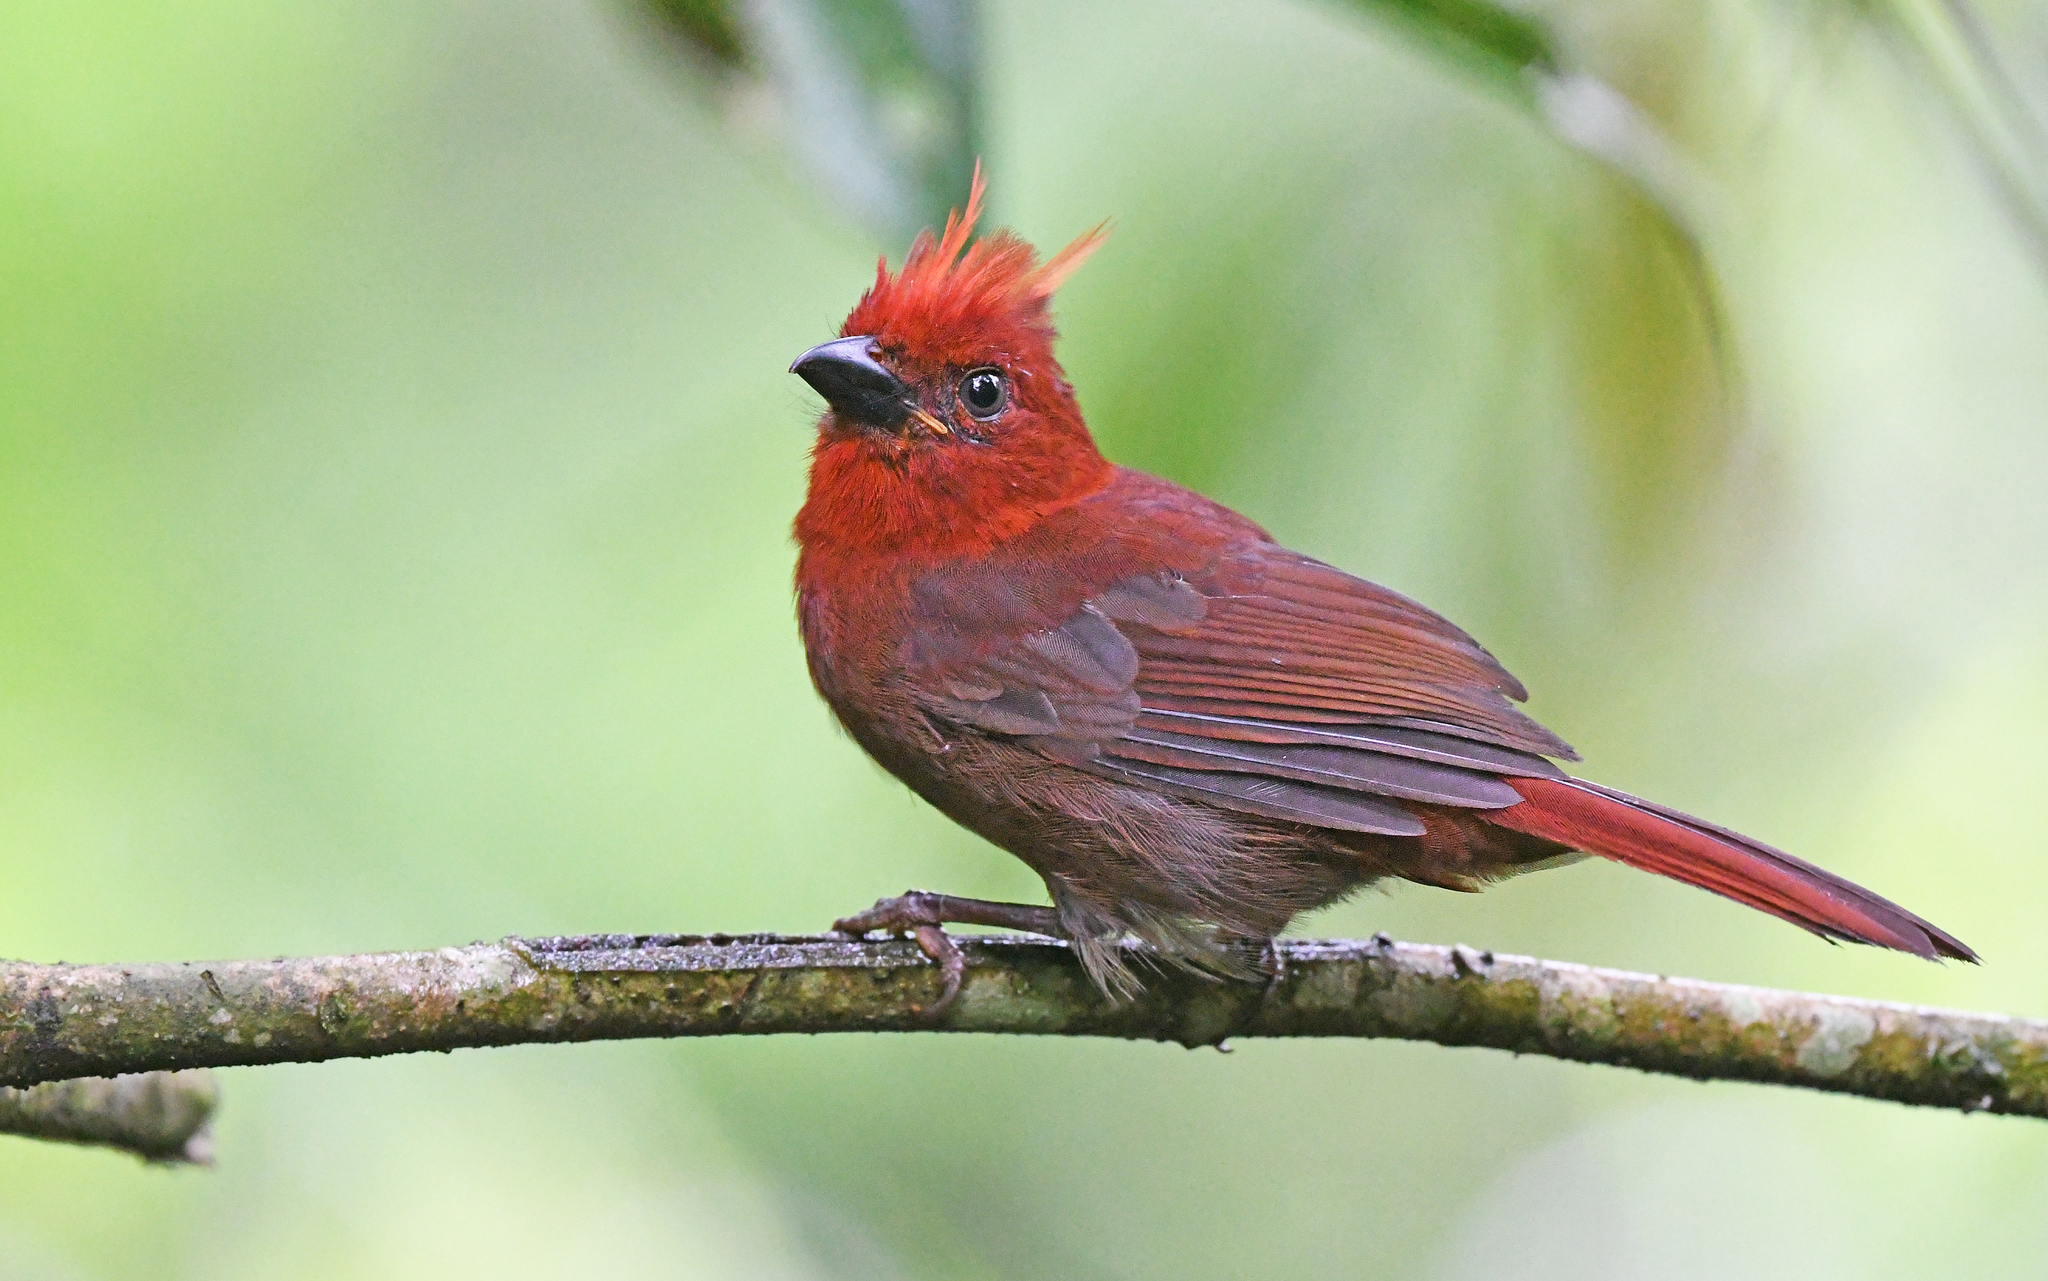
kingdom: Animalia
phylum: Chordata
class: Aves
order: Passeriformes
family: Cardinalidae
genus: Habia
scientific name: Habia cristata
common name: Crested ant tanager
